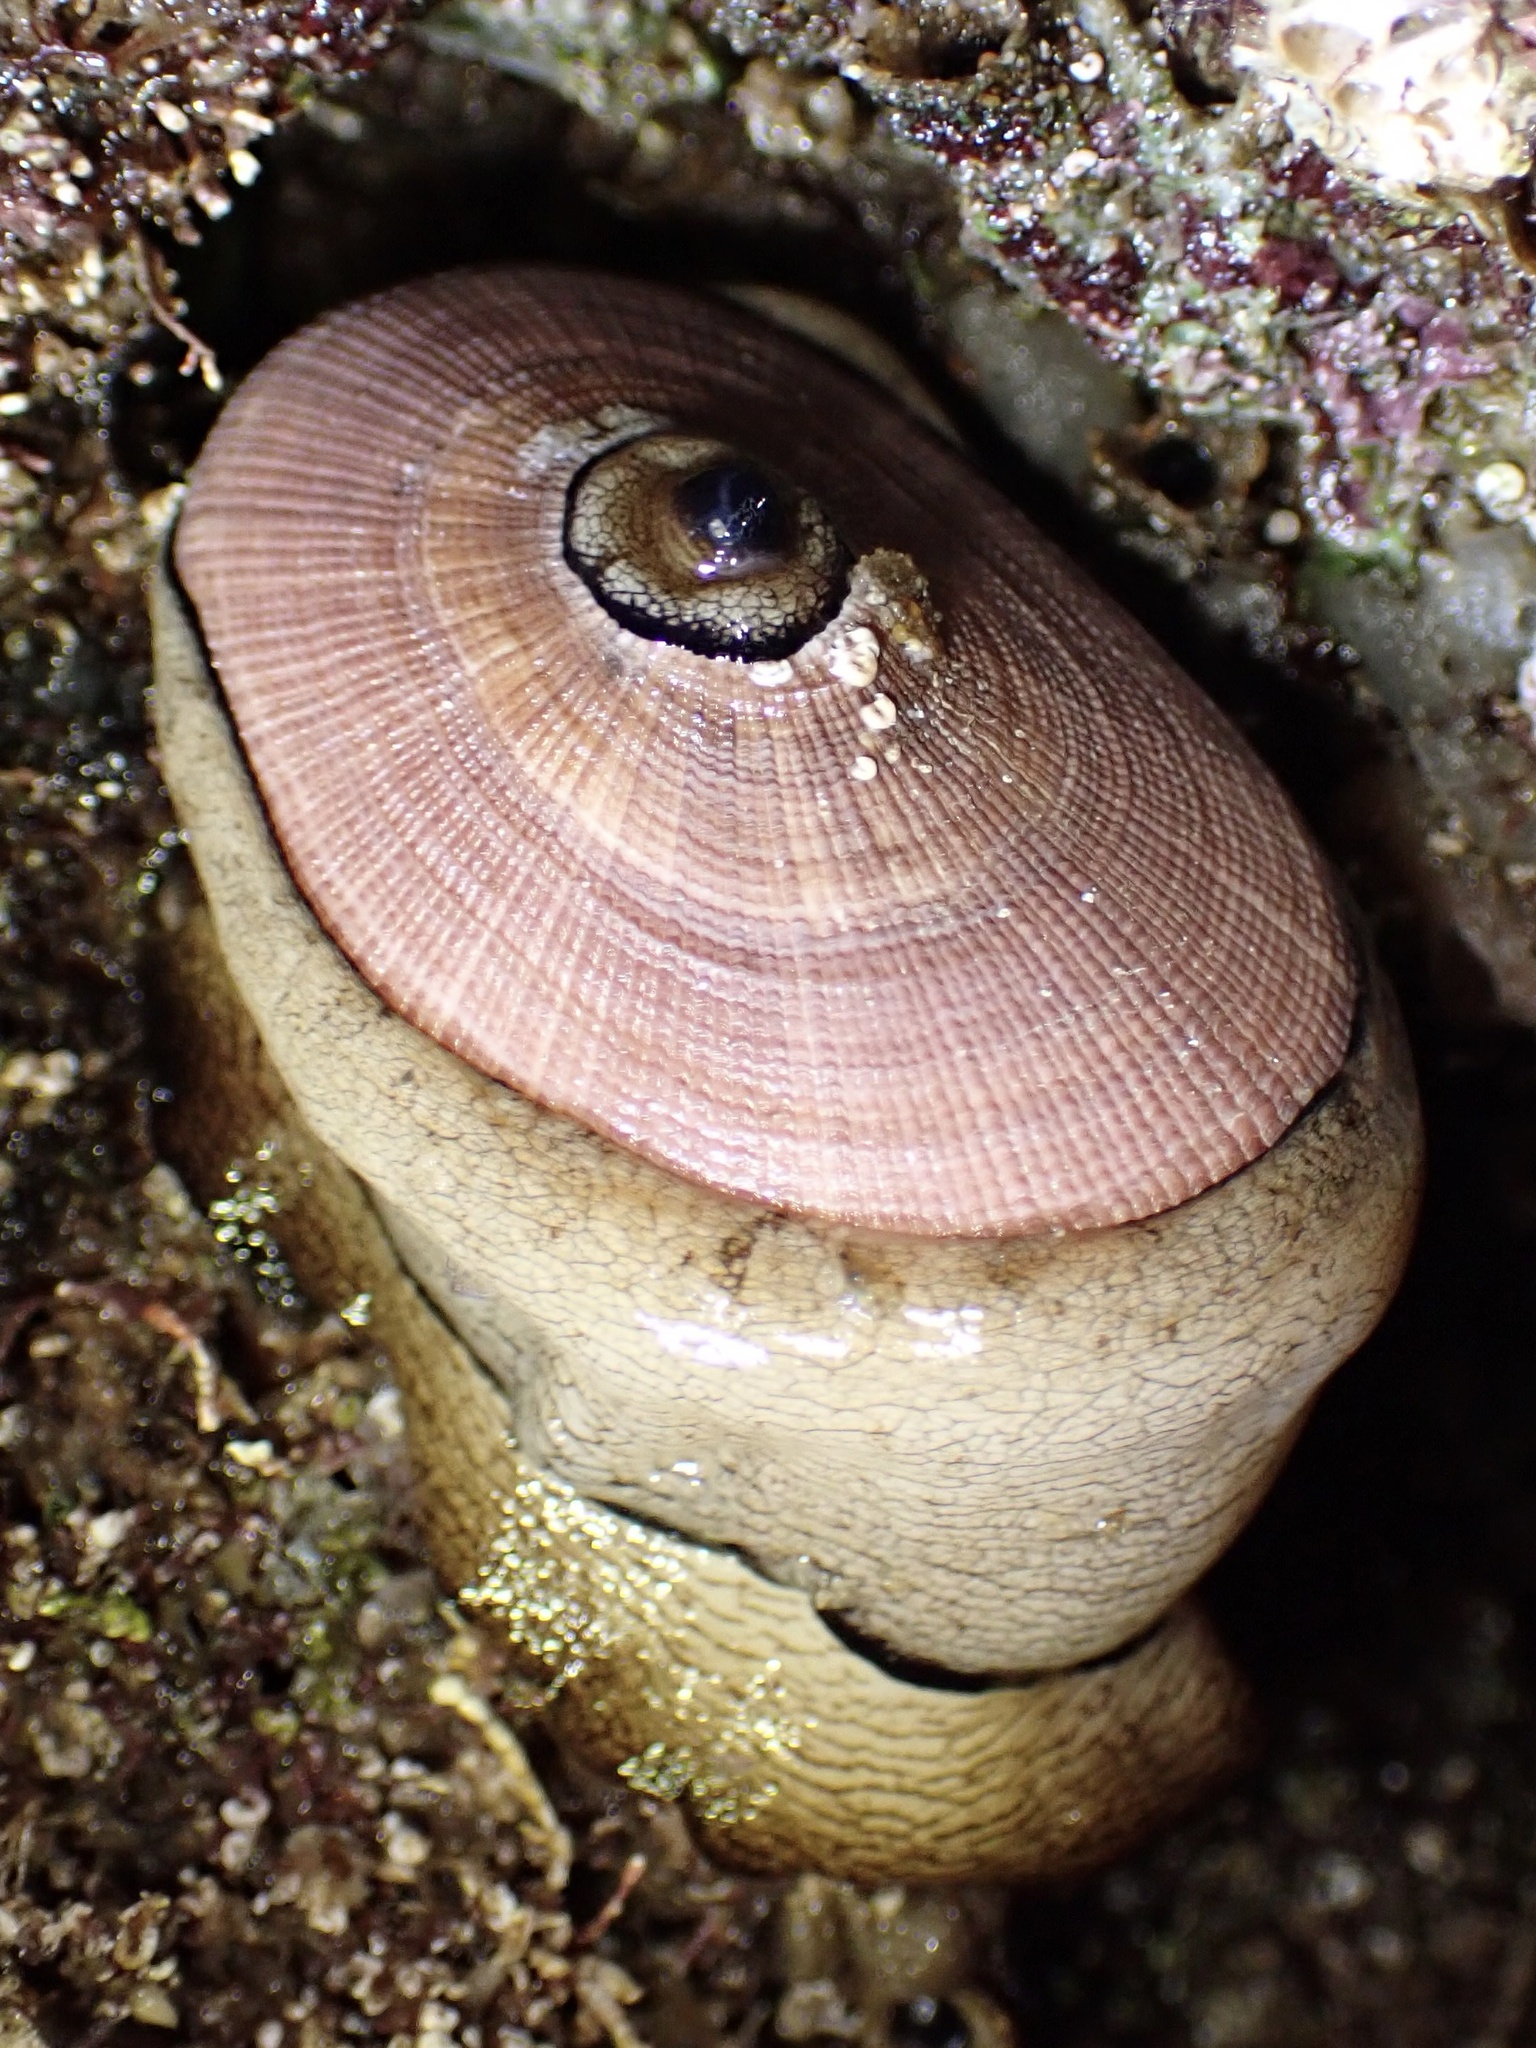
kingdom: Animalia
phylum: Mollusca
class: Gastropoda
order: Lepetellida
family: Fissurellidae
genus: Megathura
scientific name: Megathura crenulata
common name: Giant keyhole limpet
